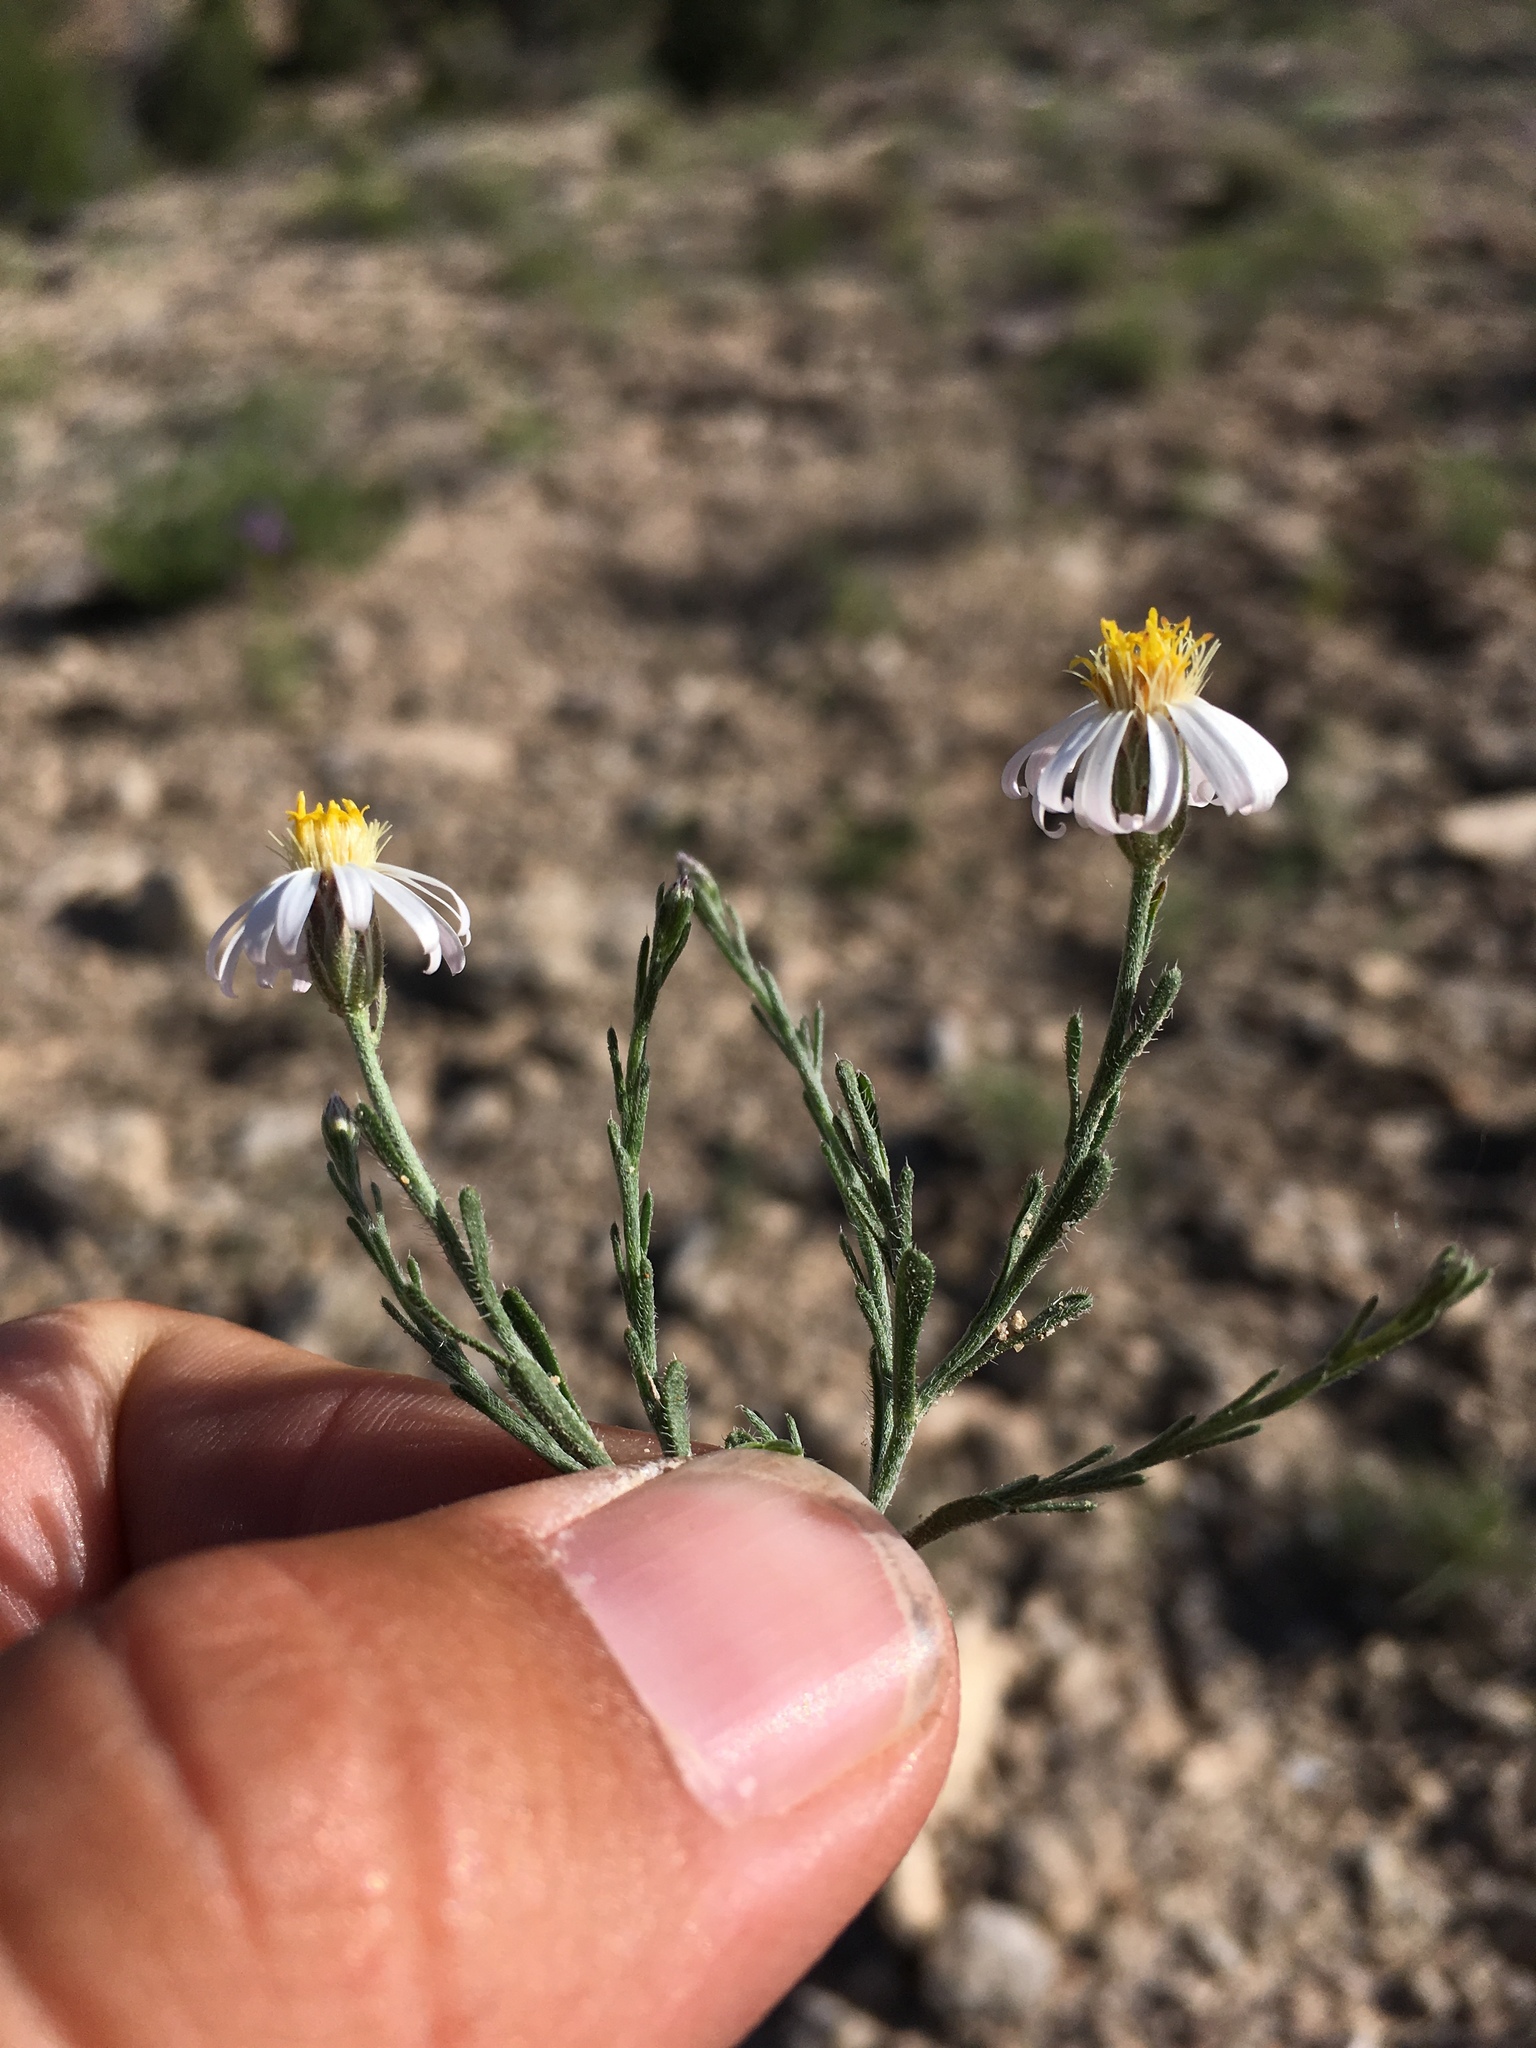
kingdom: Plantae
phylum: Tracheophyta
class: Magnoliopsida
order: Asterales
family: Asteraceae
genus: Chaetopappa
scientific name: Chaetopappa ericoides
